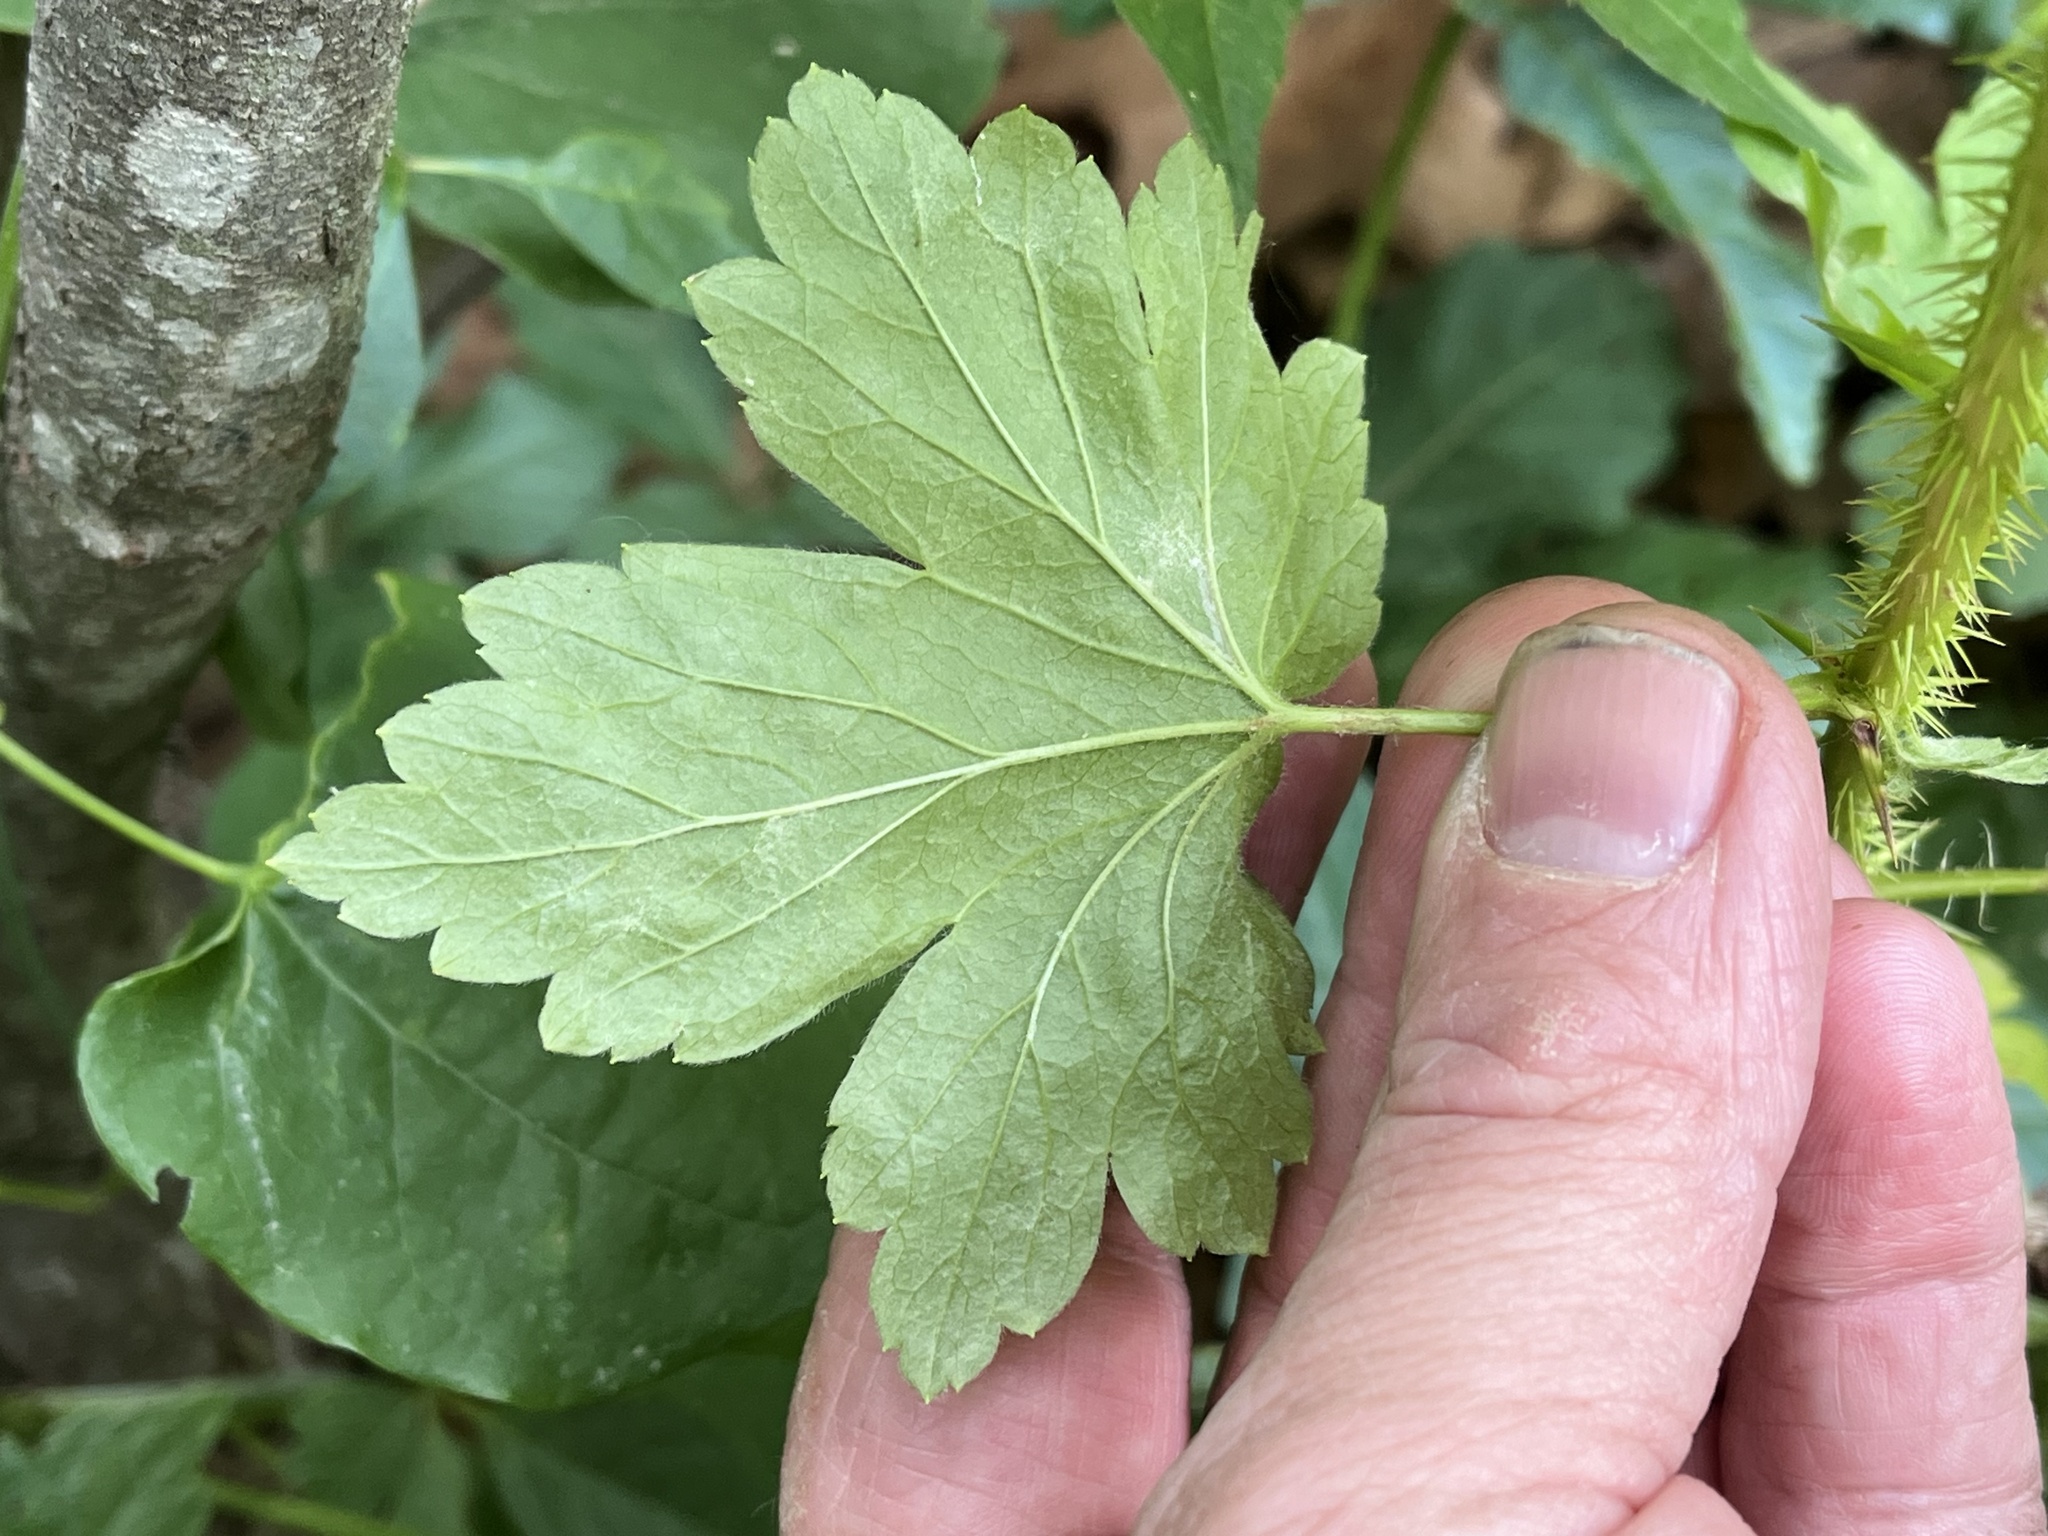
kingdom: Plantae
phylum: Tracheophyta
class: Magnoliopsida
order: Saxifragales
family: Grossulariaceae
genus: Ribes
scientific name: Ribes missouriense
